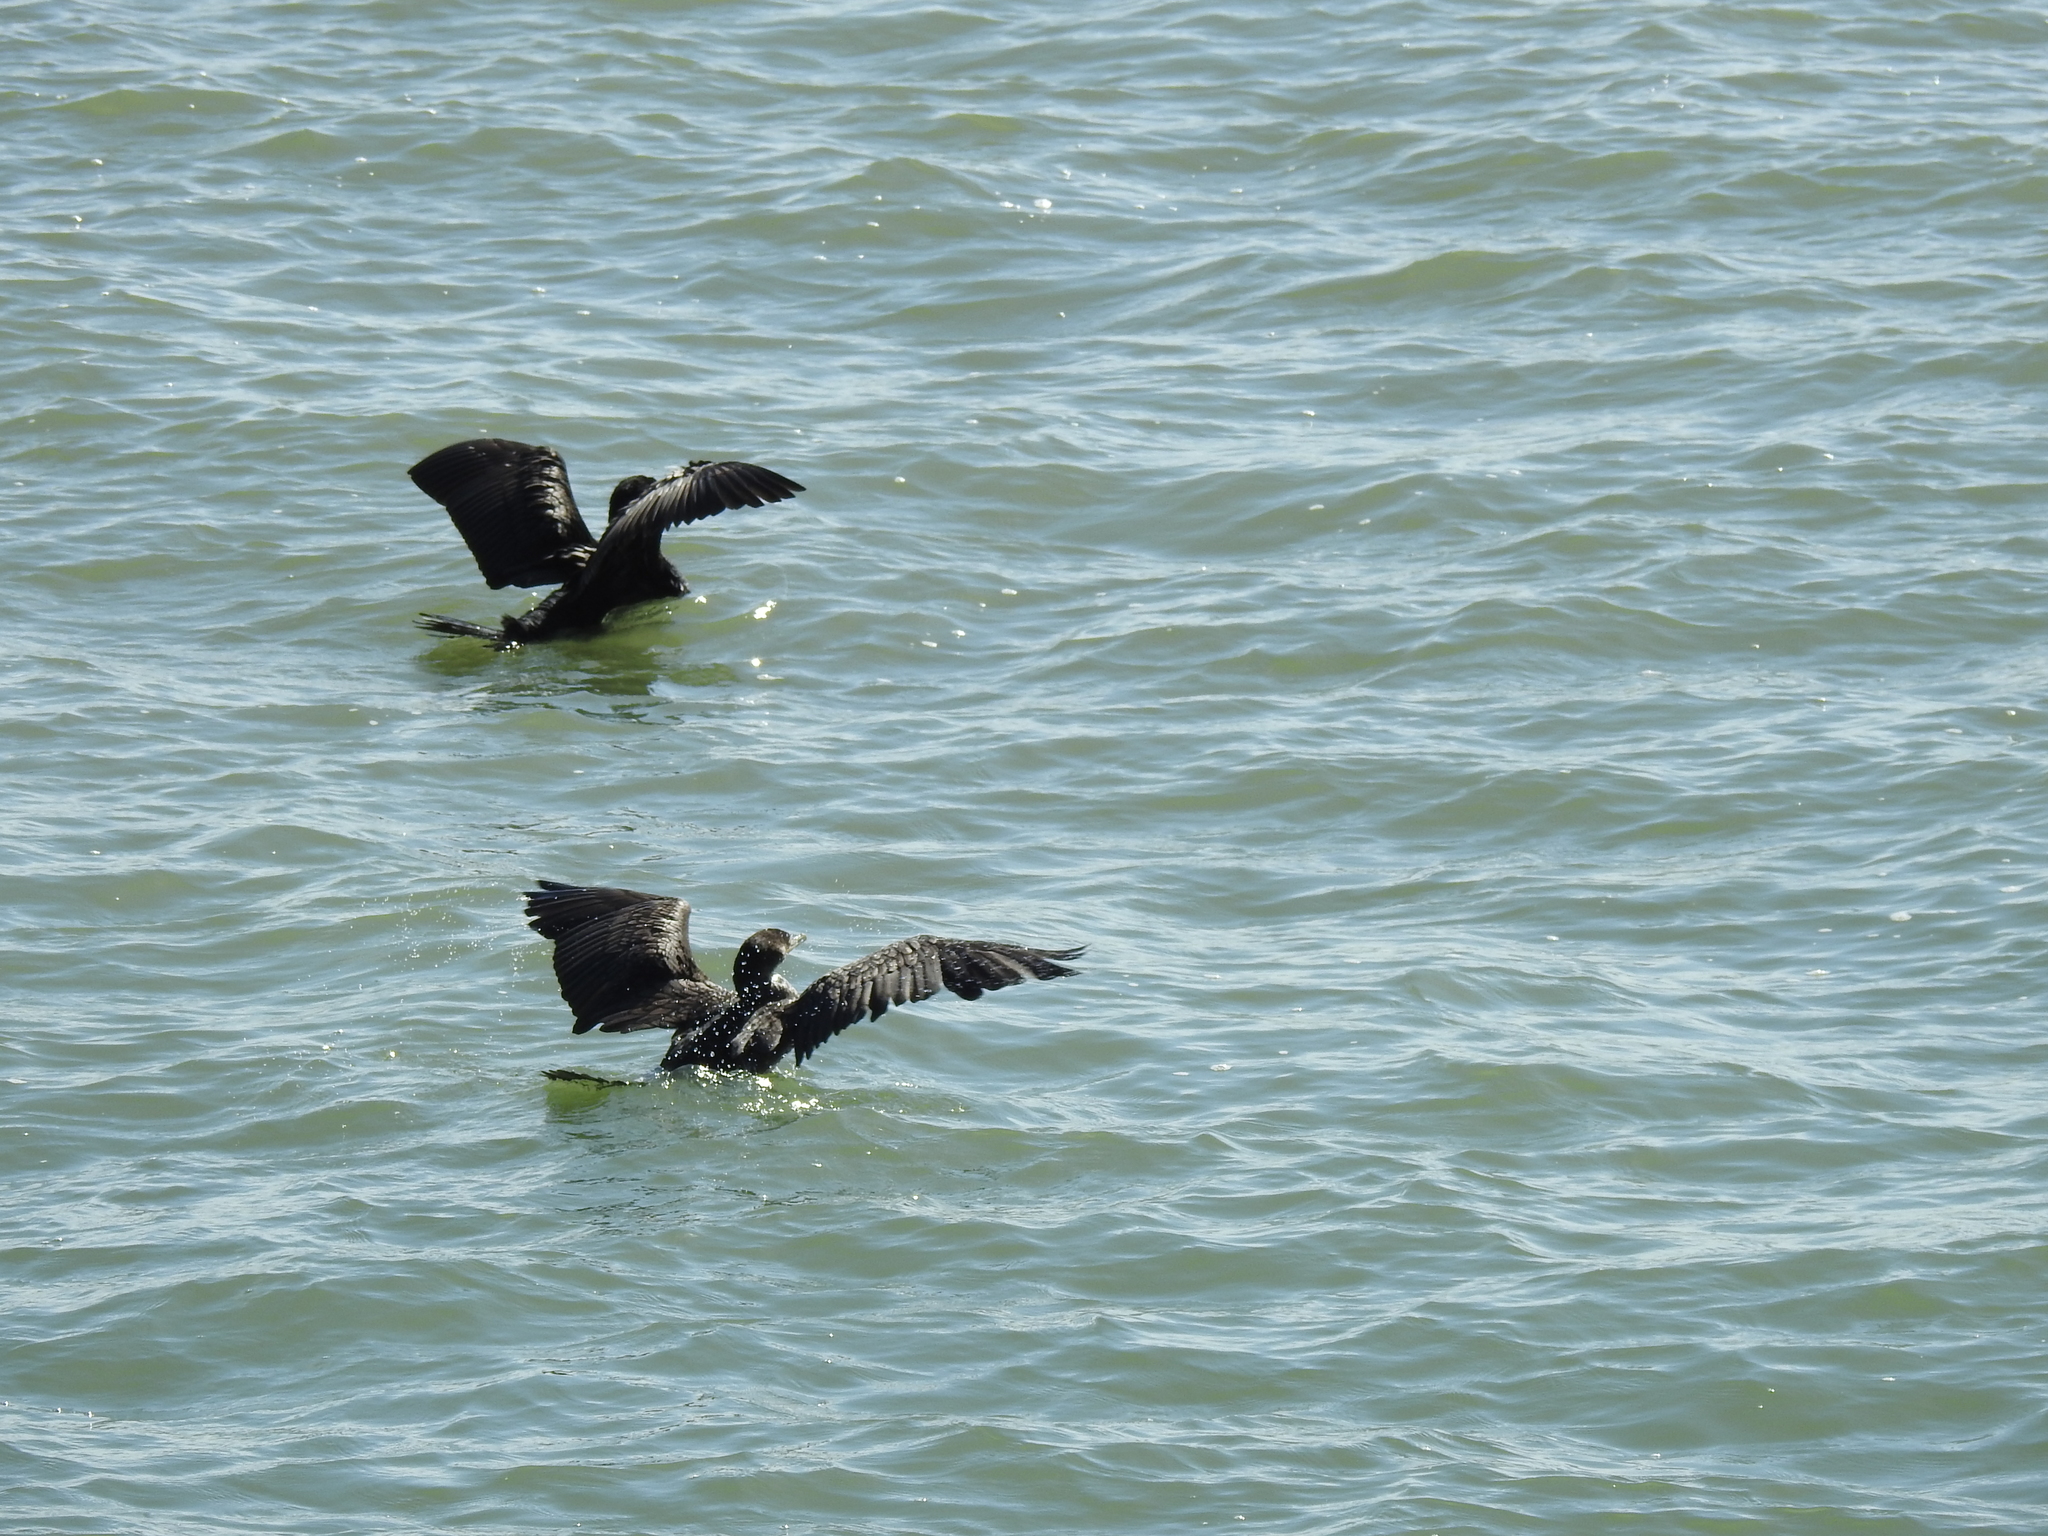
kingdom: Animalia
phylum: Chordata
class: Aves
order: Suliformes
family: Phalacrocoracidae
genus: Phalacrocorax
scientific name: Phalacrocorax auritus
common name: Double-crested cormorant
